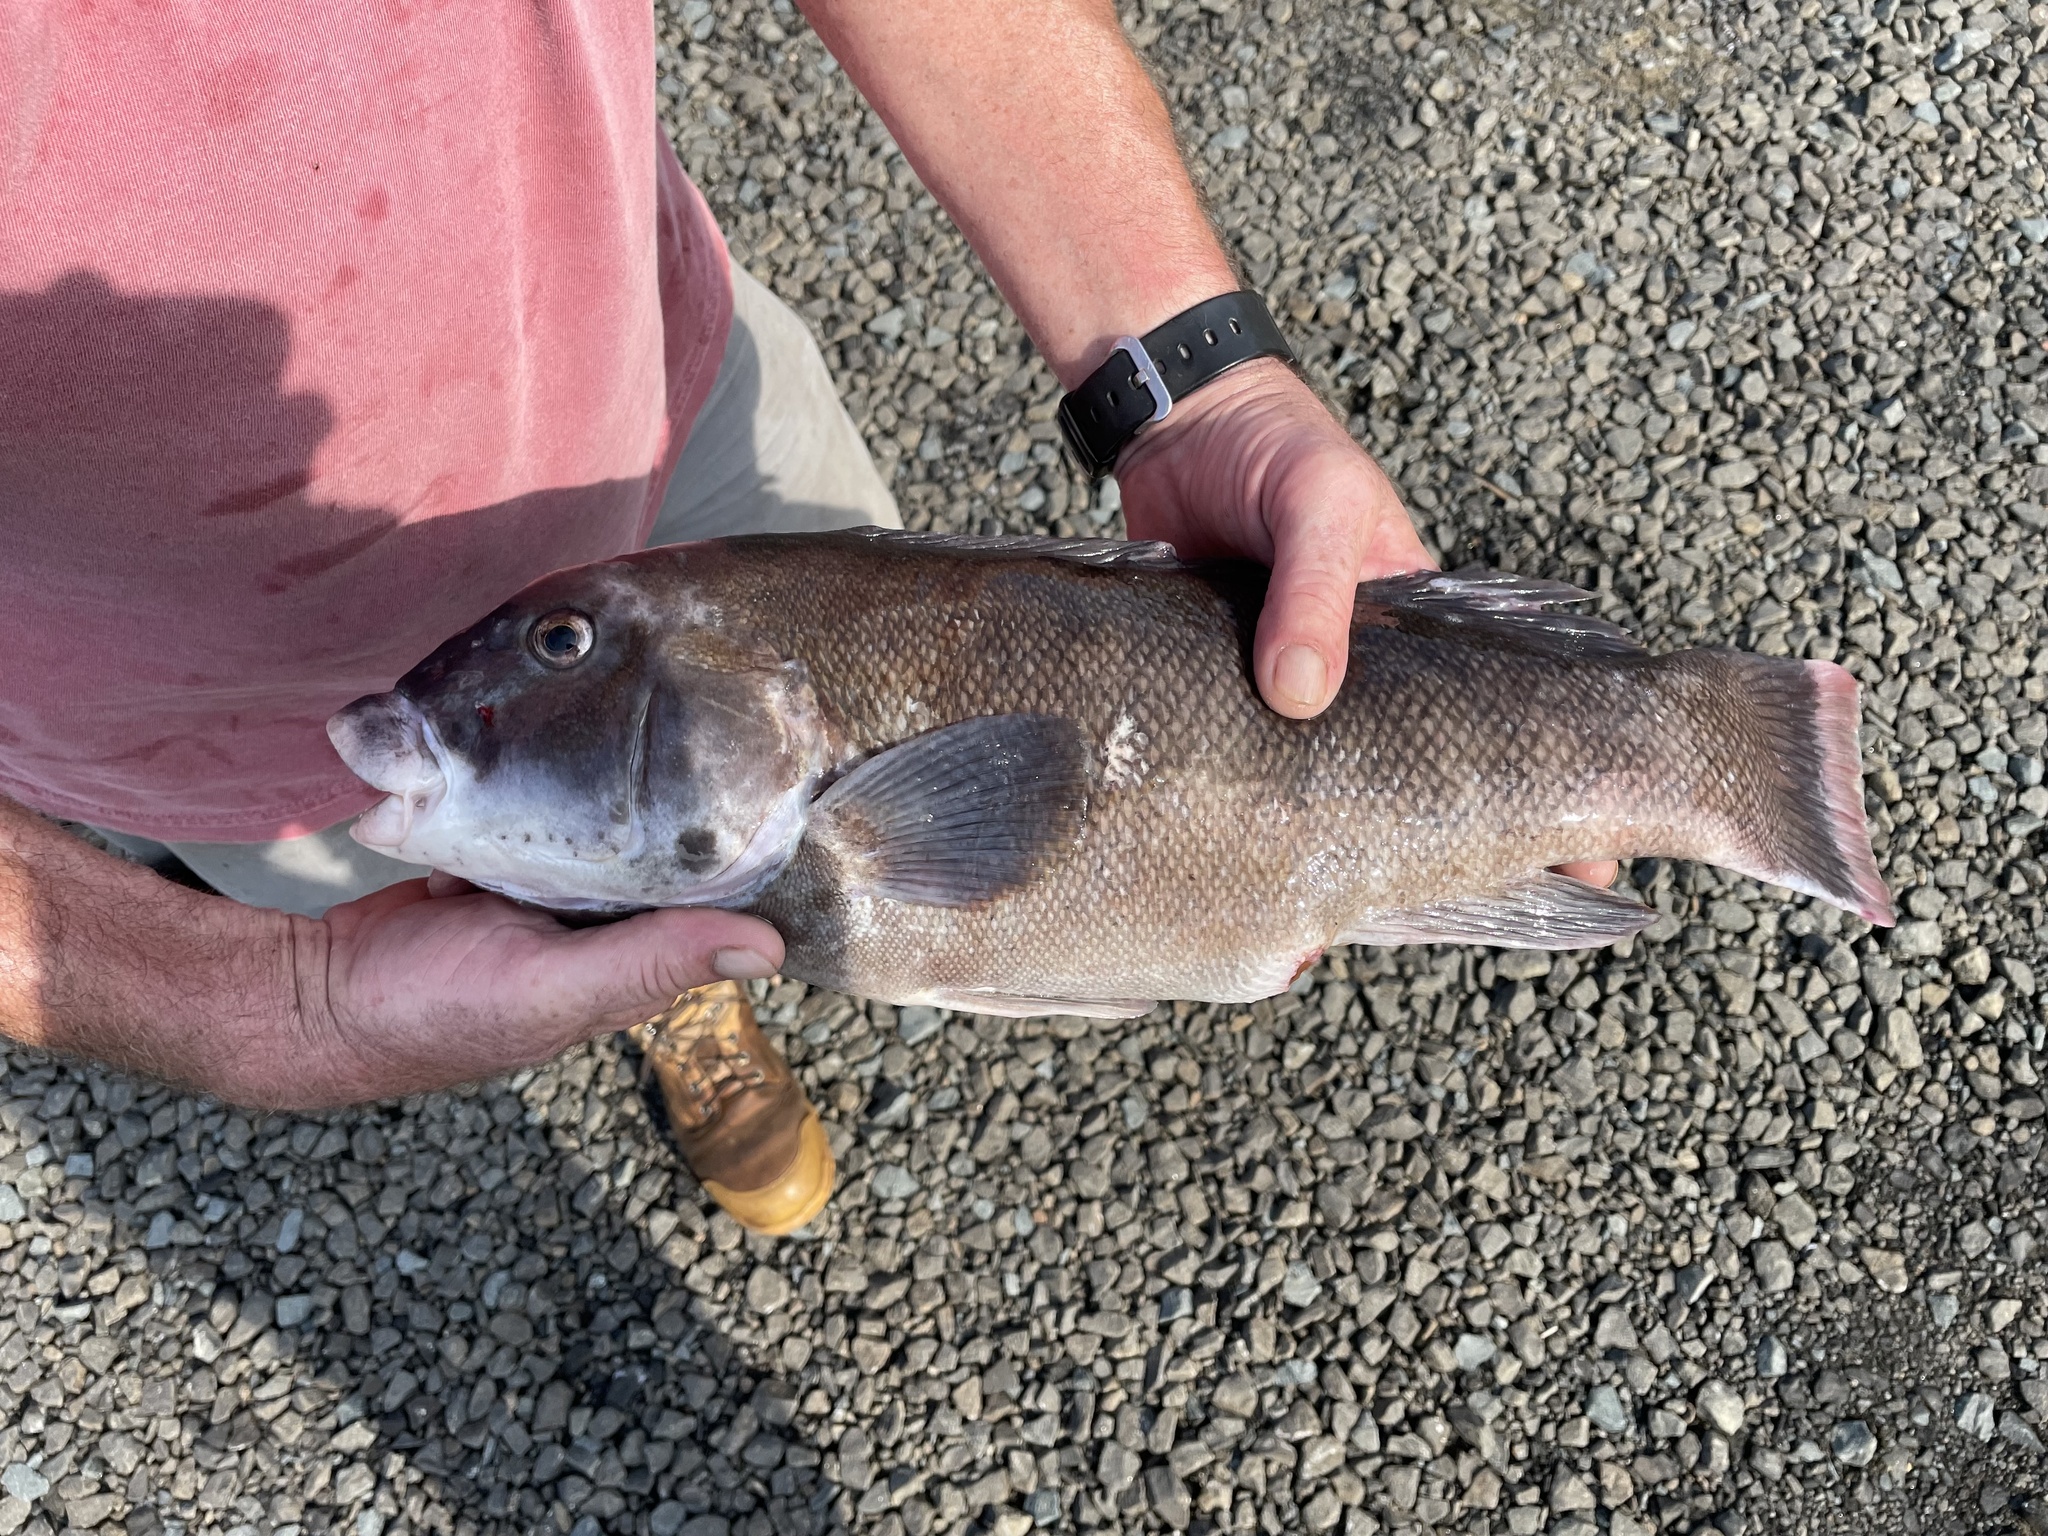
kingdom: Animalia
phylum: Chordata
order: Perciformes
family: Labridae
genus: Tautoga
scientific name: Tautoga onitis
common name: Tautog
